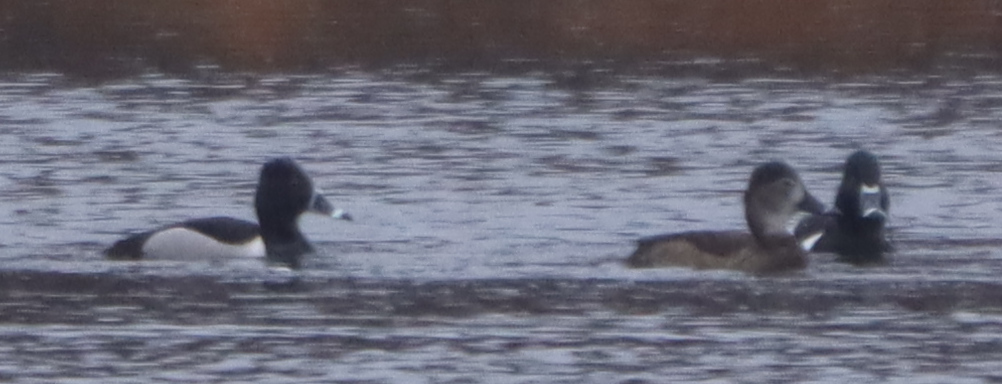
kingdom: Animalia
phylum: Chordata
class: Aves
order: Anseriformes
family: Anatidae
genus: Aythya
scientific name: Aythya collaris
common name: Ring-necked duck
